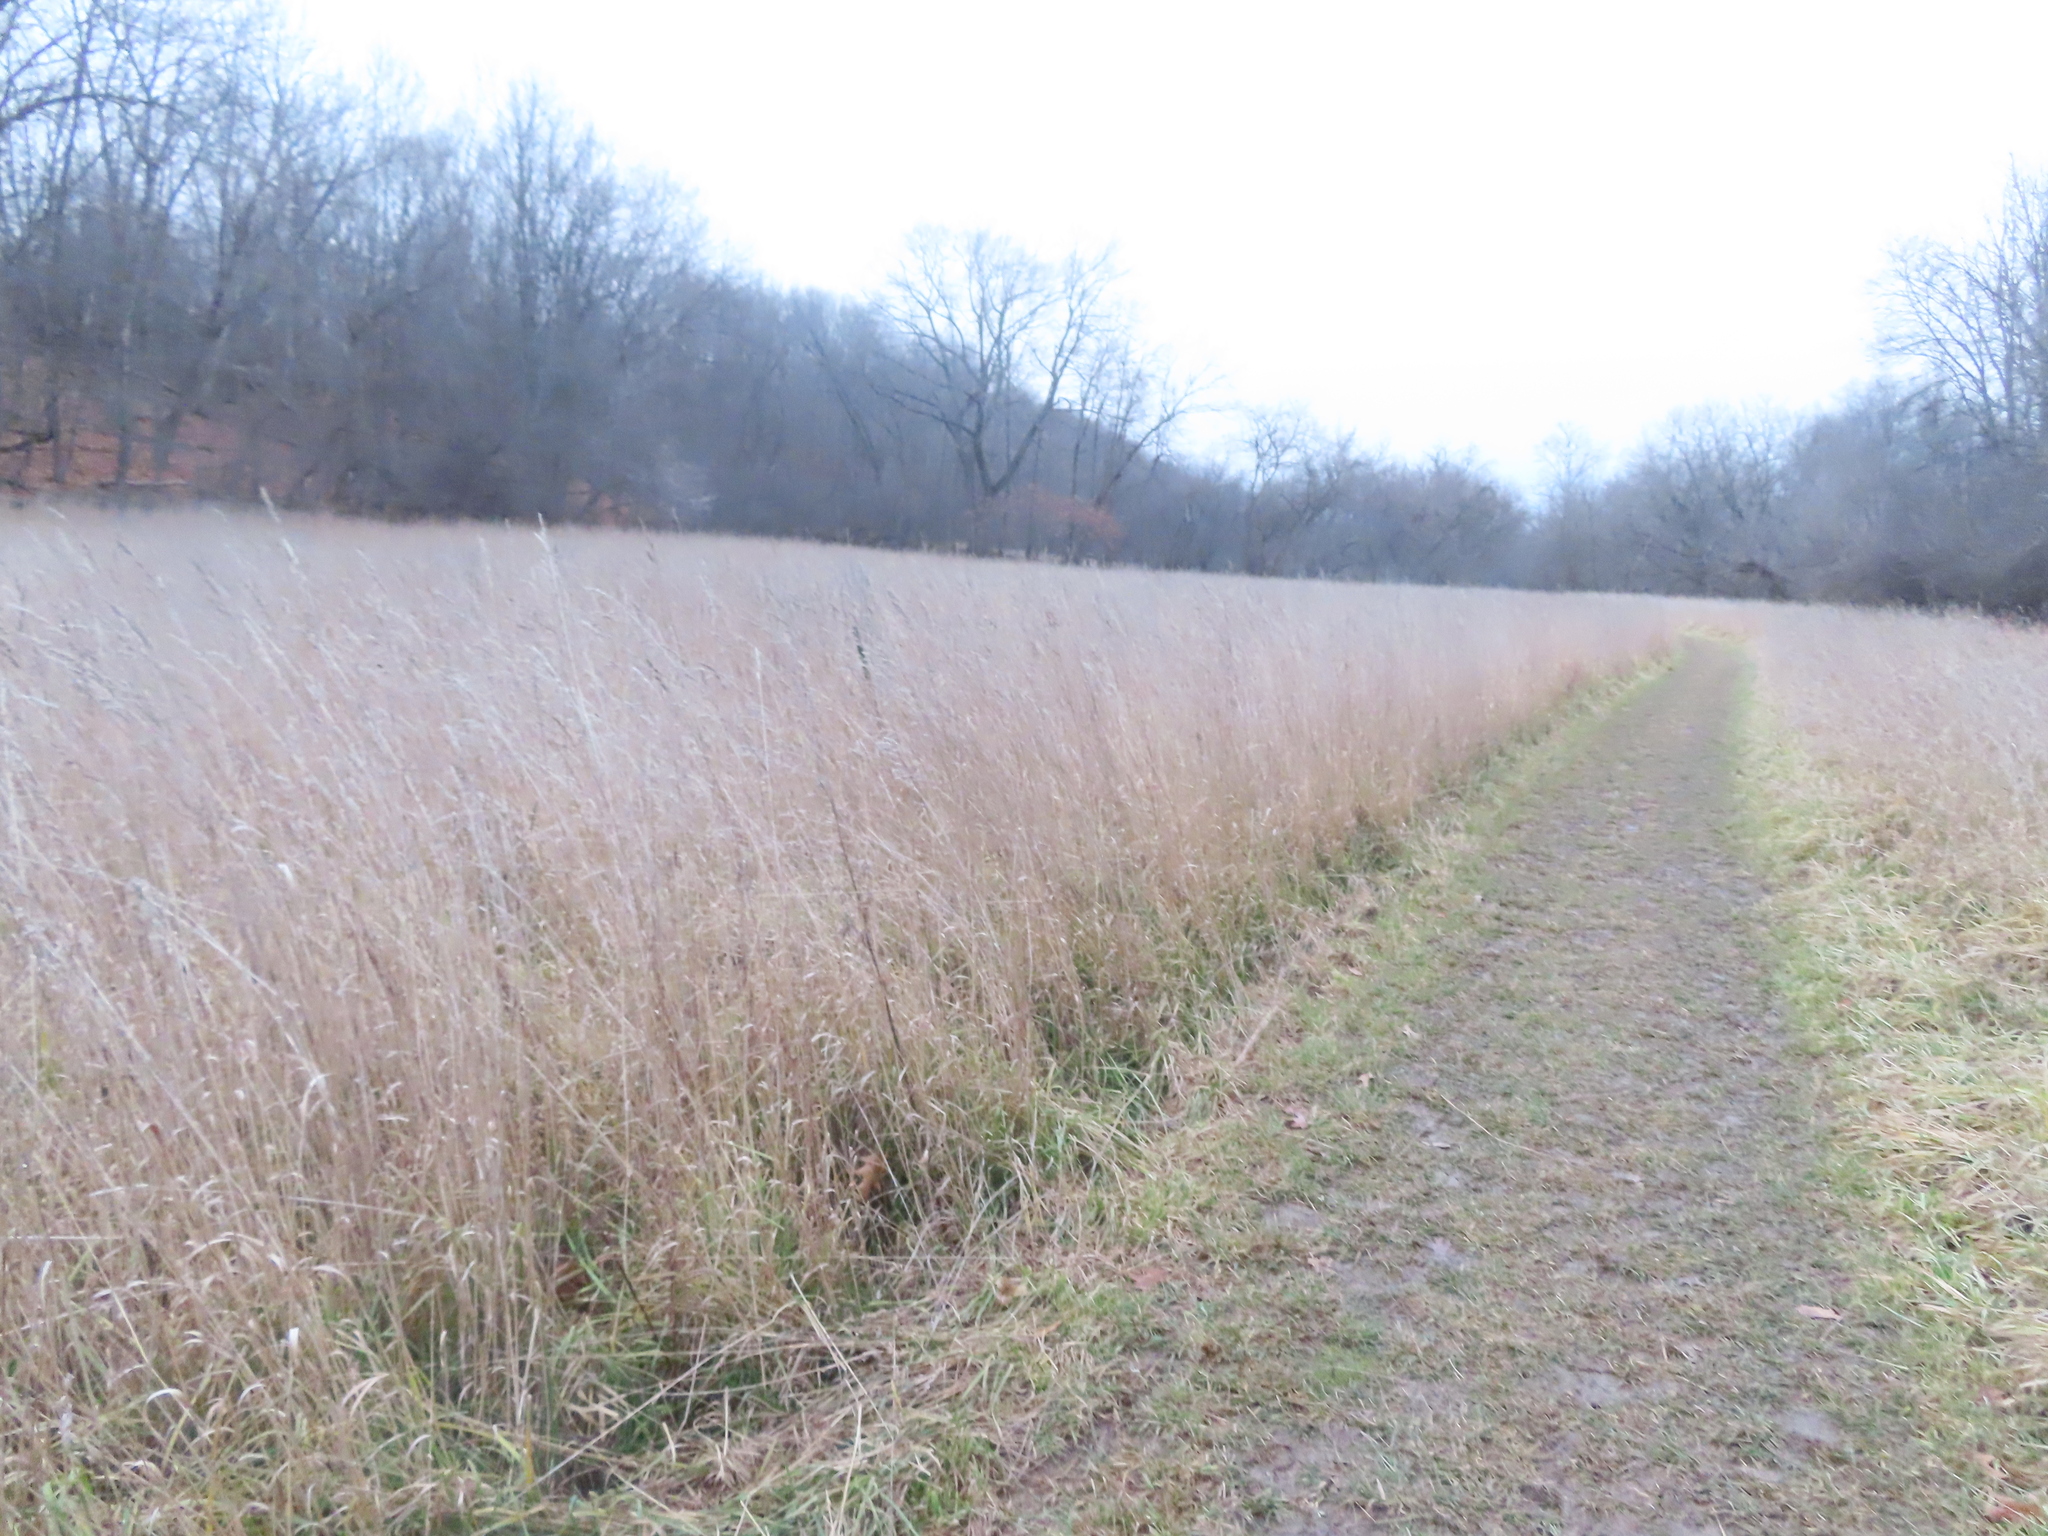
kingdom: Plantae
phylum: Tracheophyta
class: Liliopsida
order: Poales
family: Poaceae
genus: Dactylis
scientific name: Dactylis glomerata
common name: Orchardgrass
